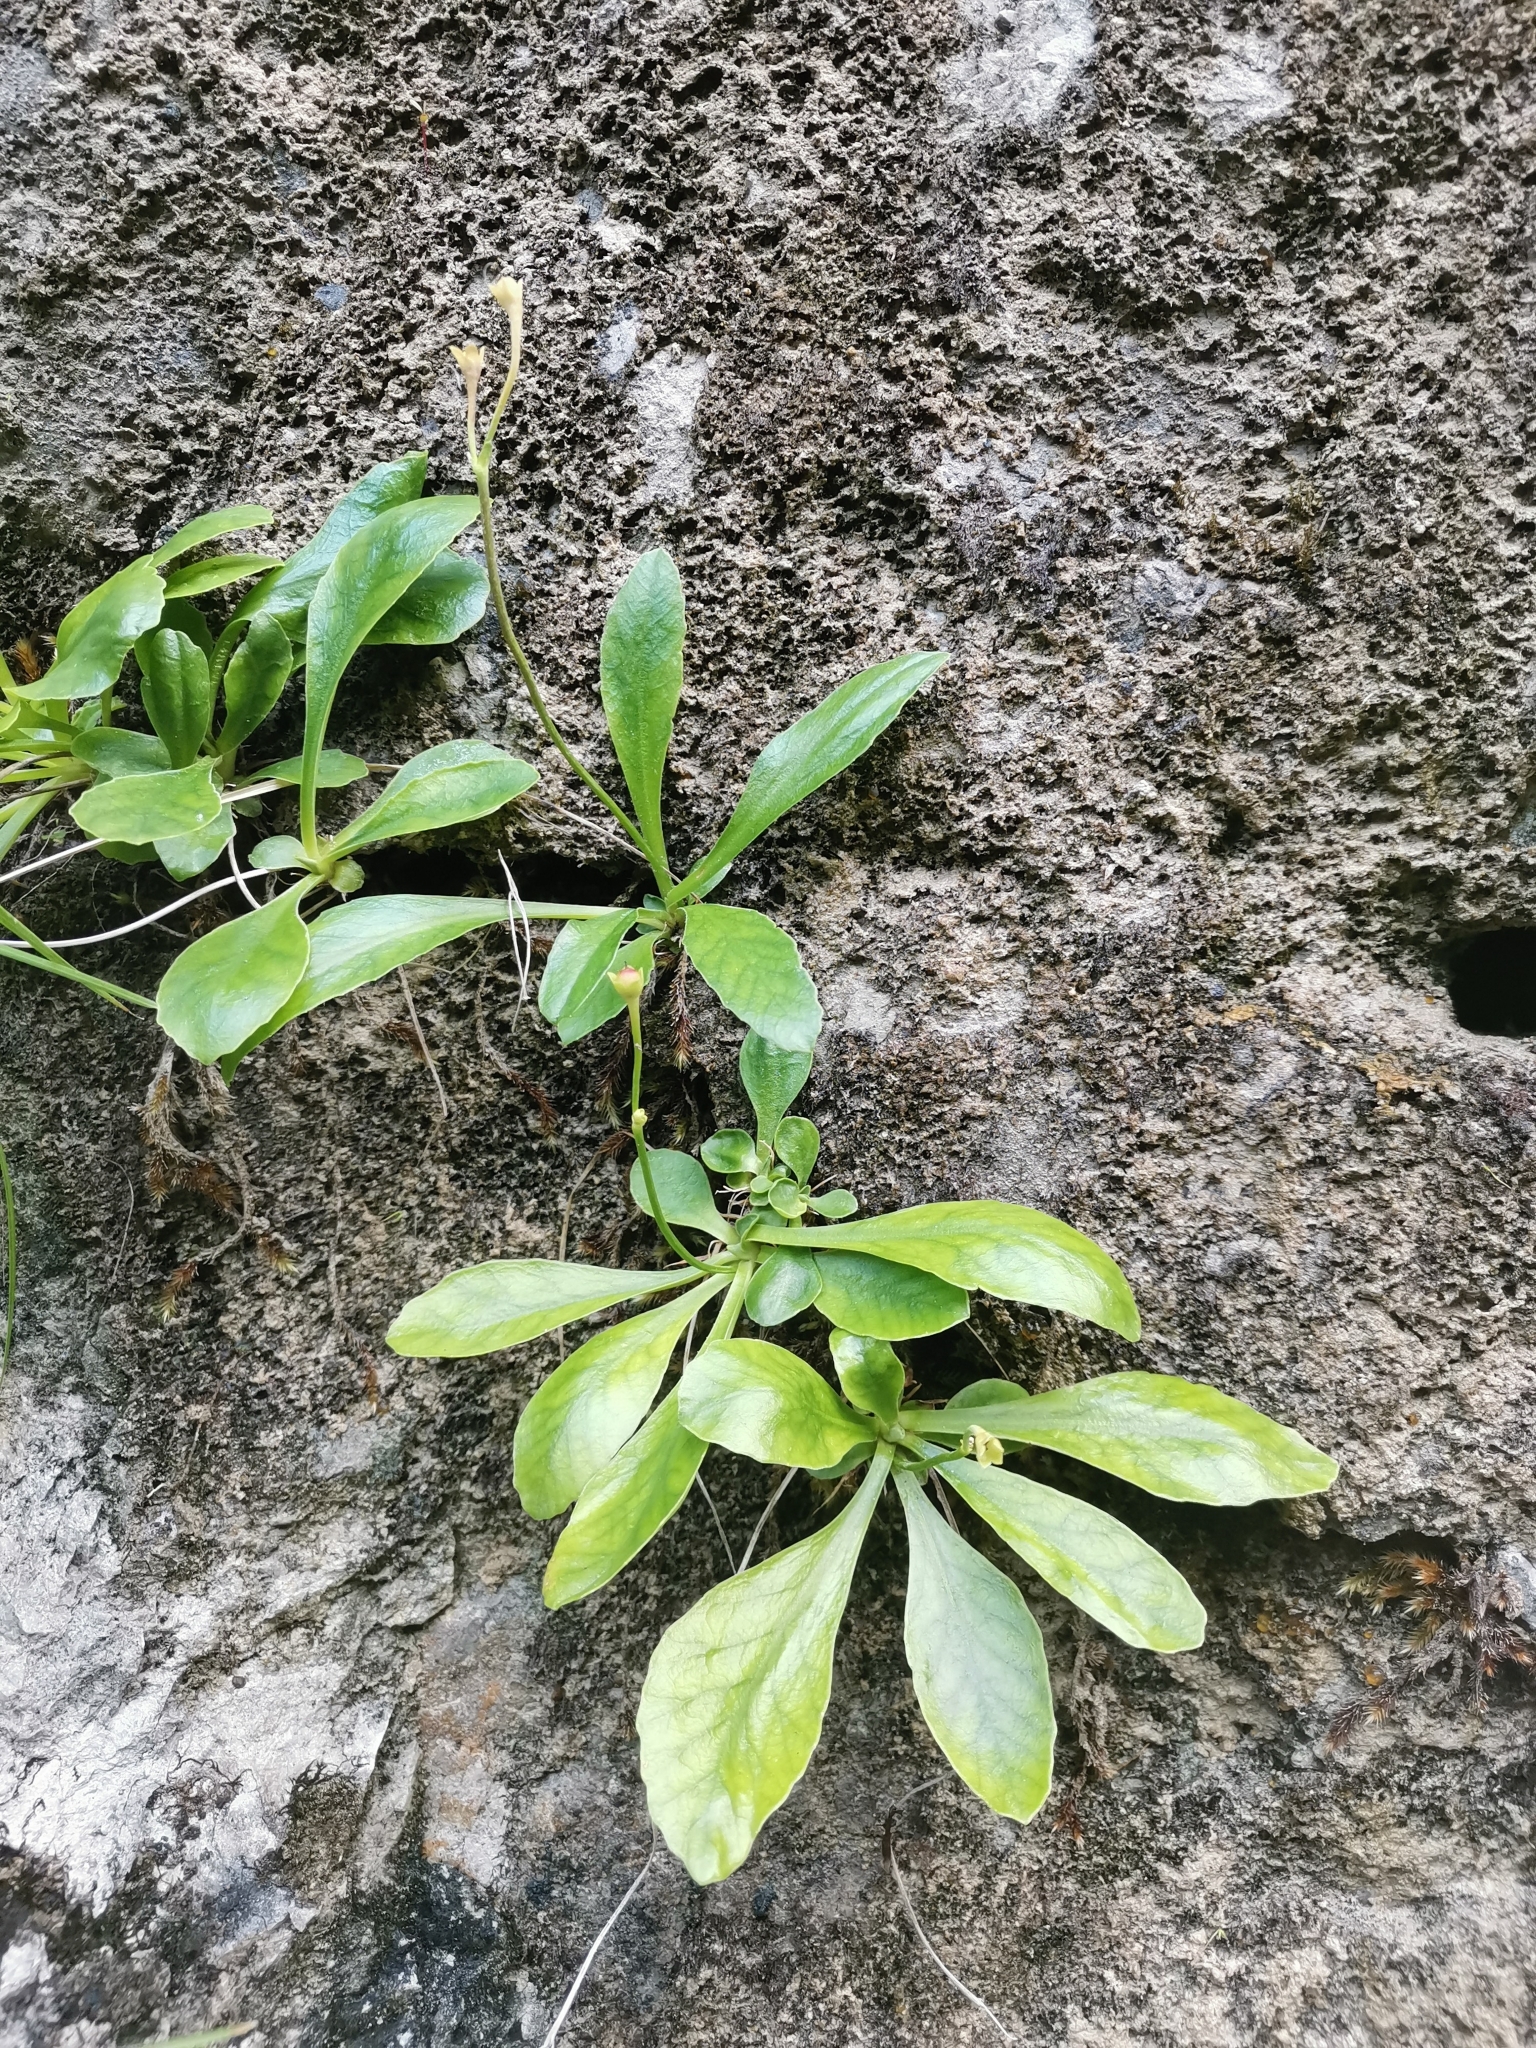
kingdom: Plantae
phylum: Tracheophyta
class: Magnoliopsida
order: Ericales
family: Primulaceae
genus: Primula
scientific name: Primula carniolica
